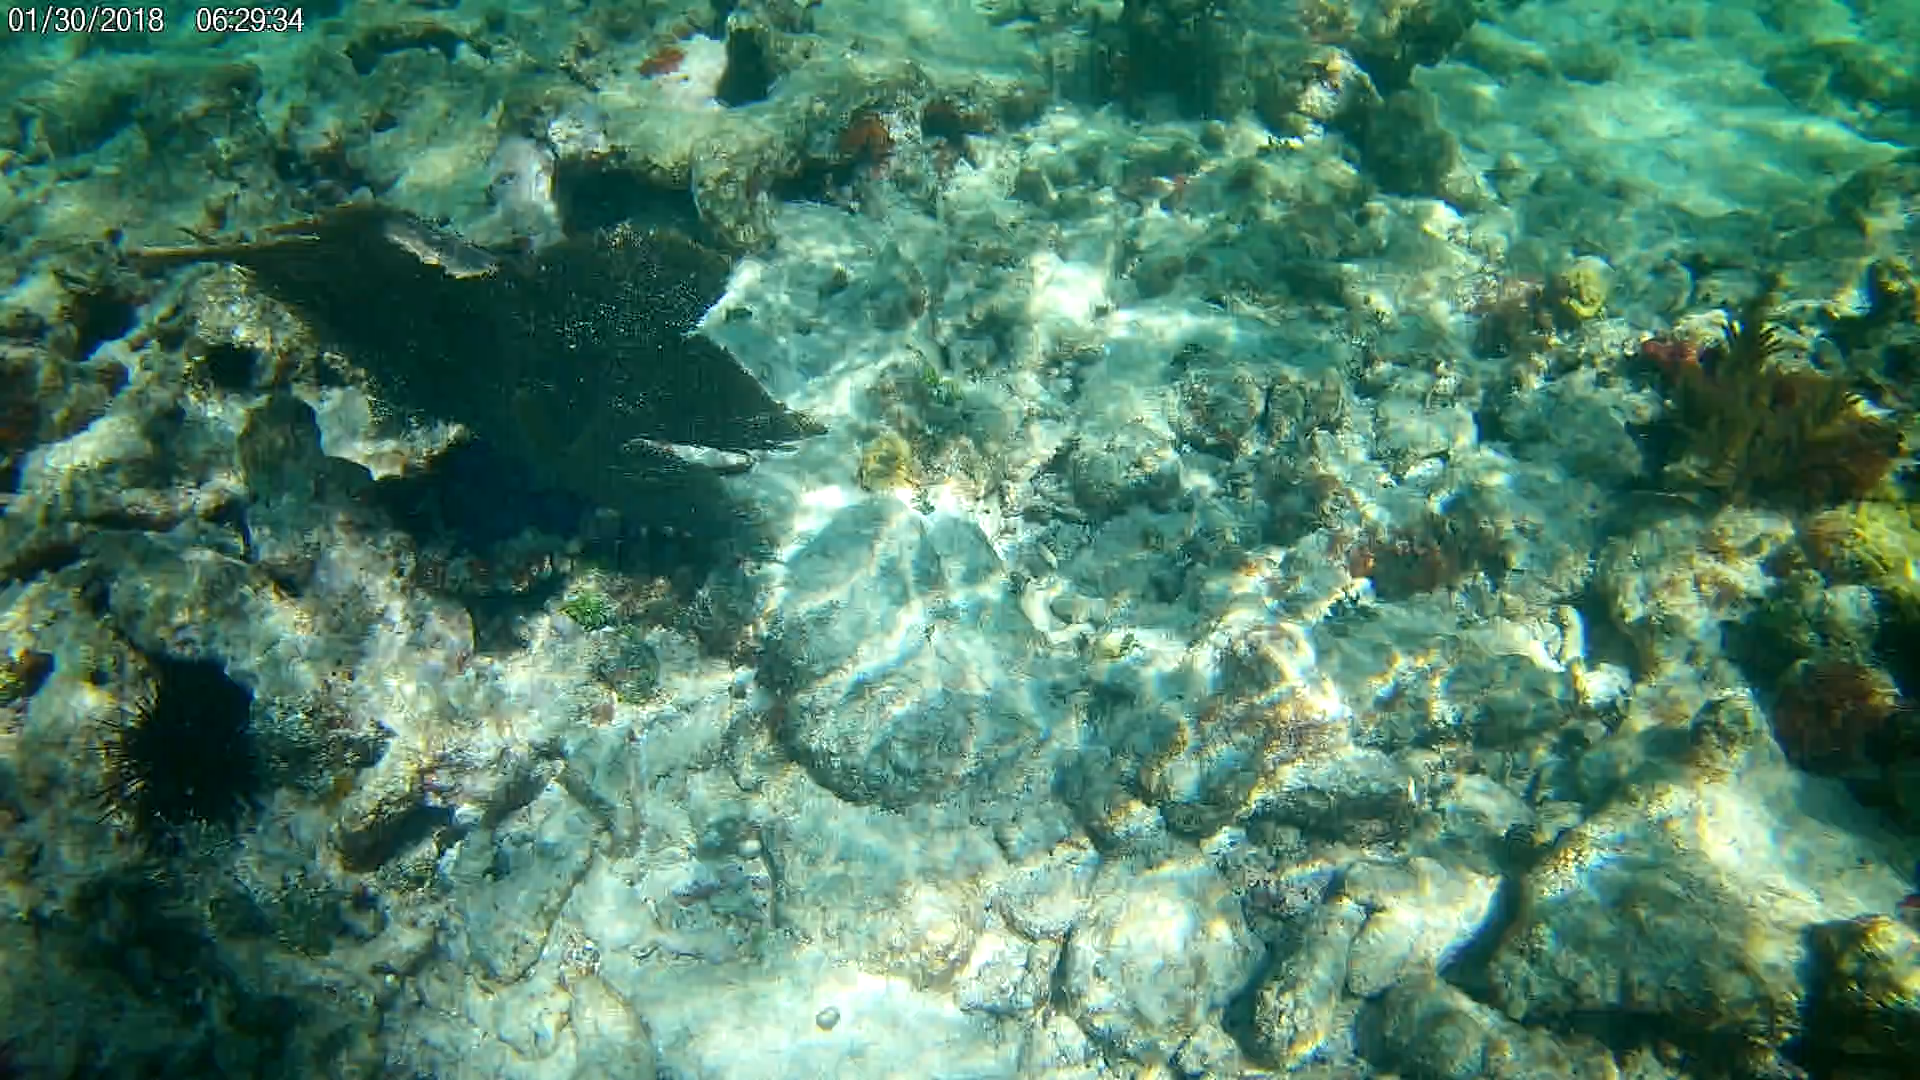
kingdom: Animalia
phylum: Echinodermata
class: Echinoidea
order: Diadematoida
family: Diadematidae
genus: Diadema
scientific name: Diadema antillarum
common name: Spiny urchin
